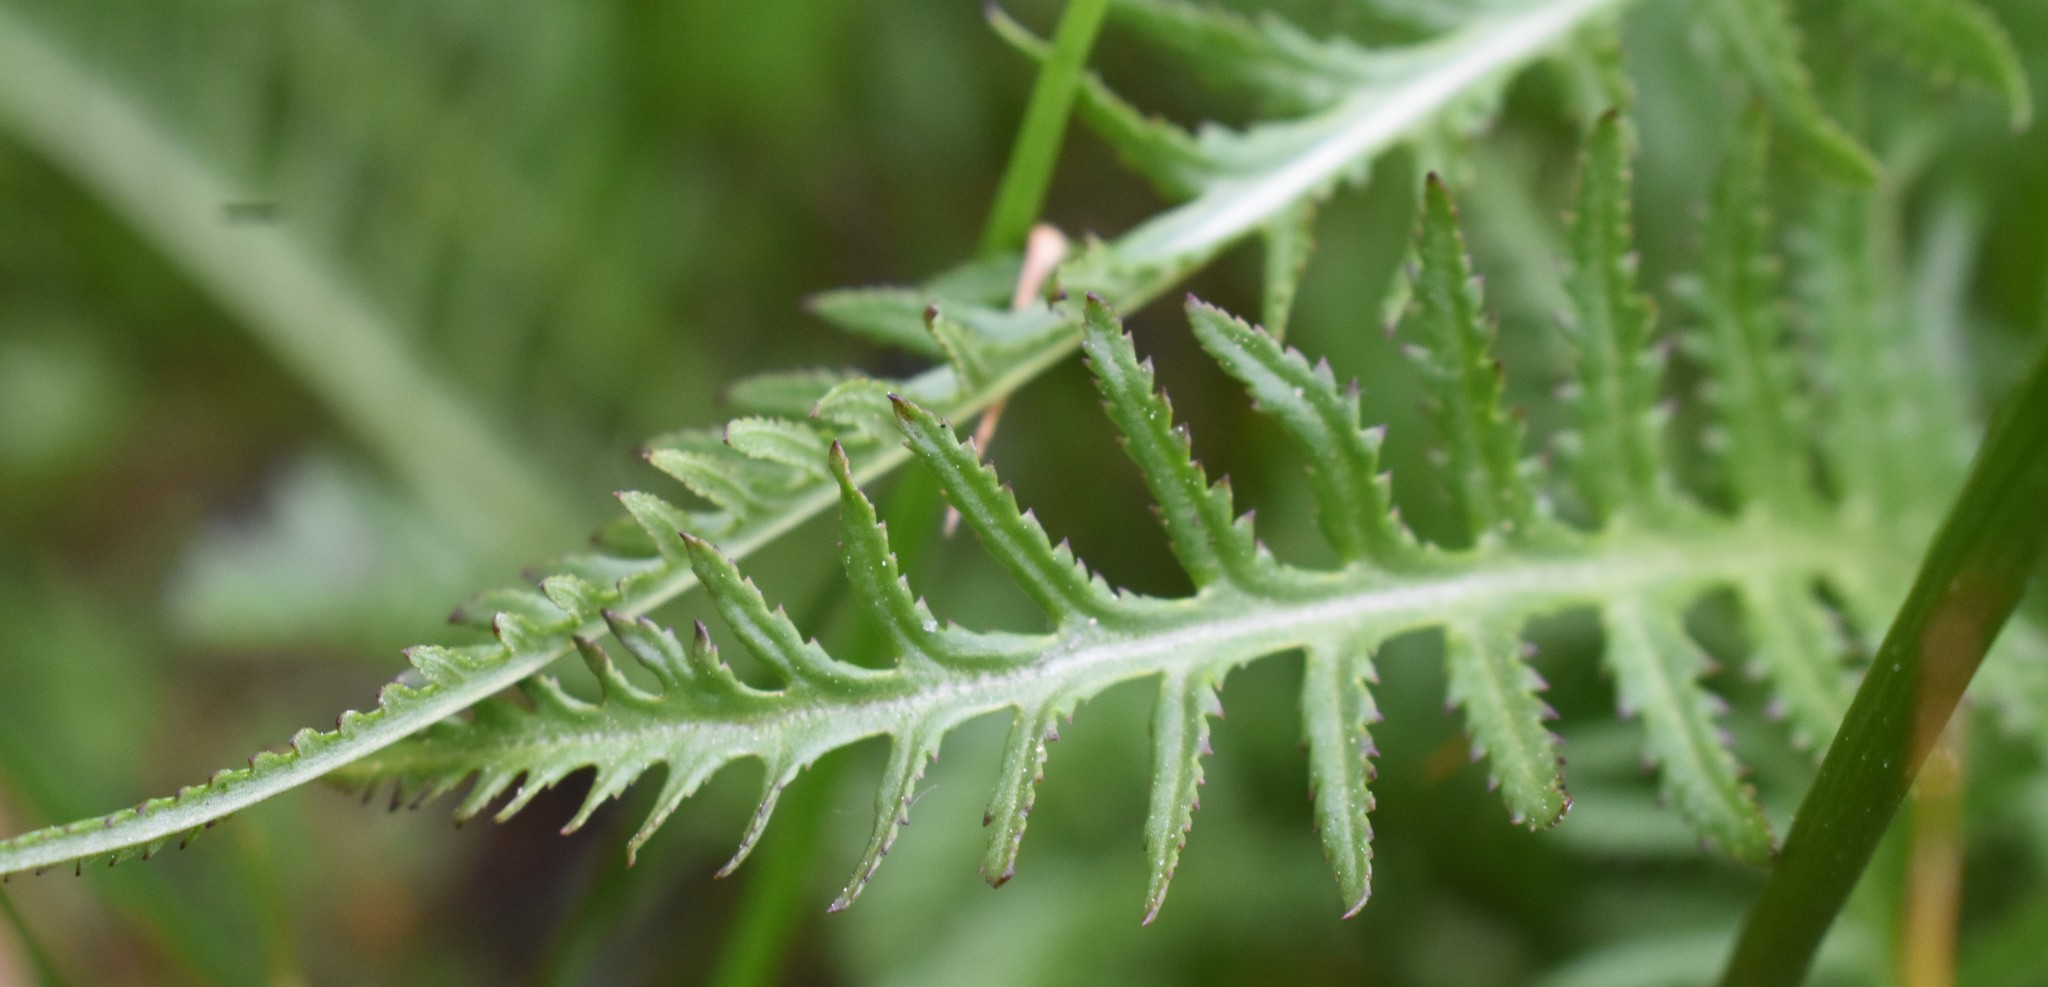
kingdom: Plantae
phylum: Tracheophyta
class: Magnoliopsida
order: Lamiales
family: Orobanchaceae
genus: Pedicularis
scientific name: Pedicularis groenlandica
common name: Elephant's-head
